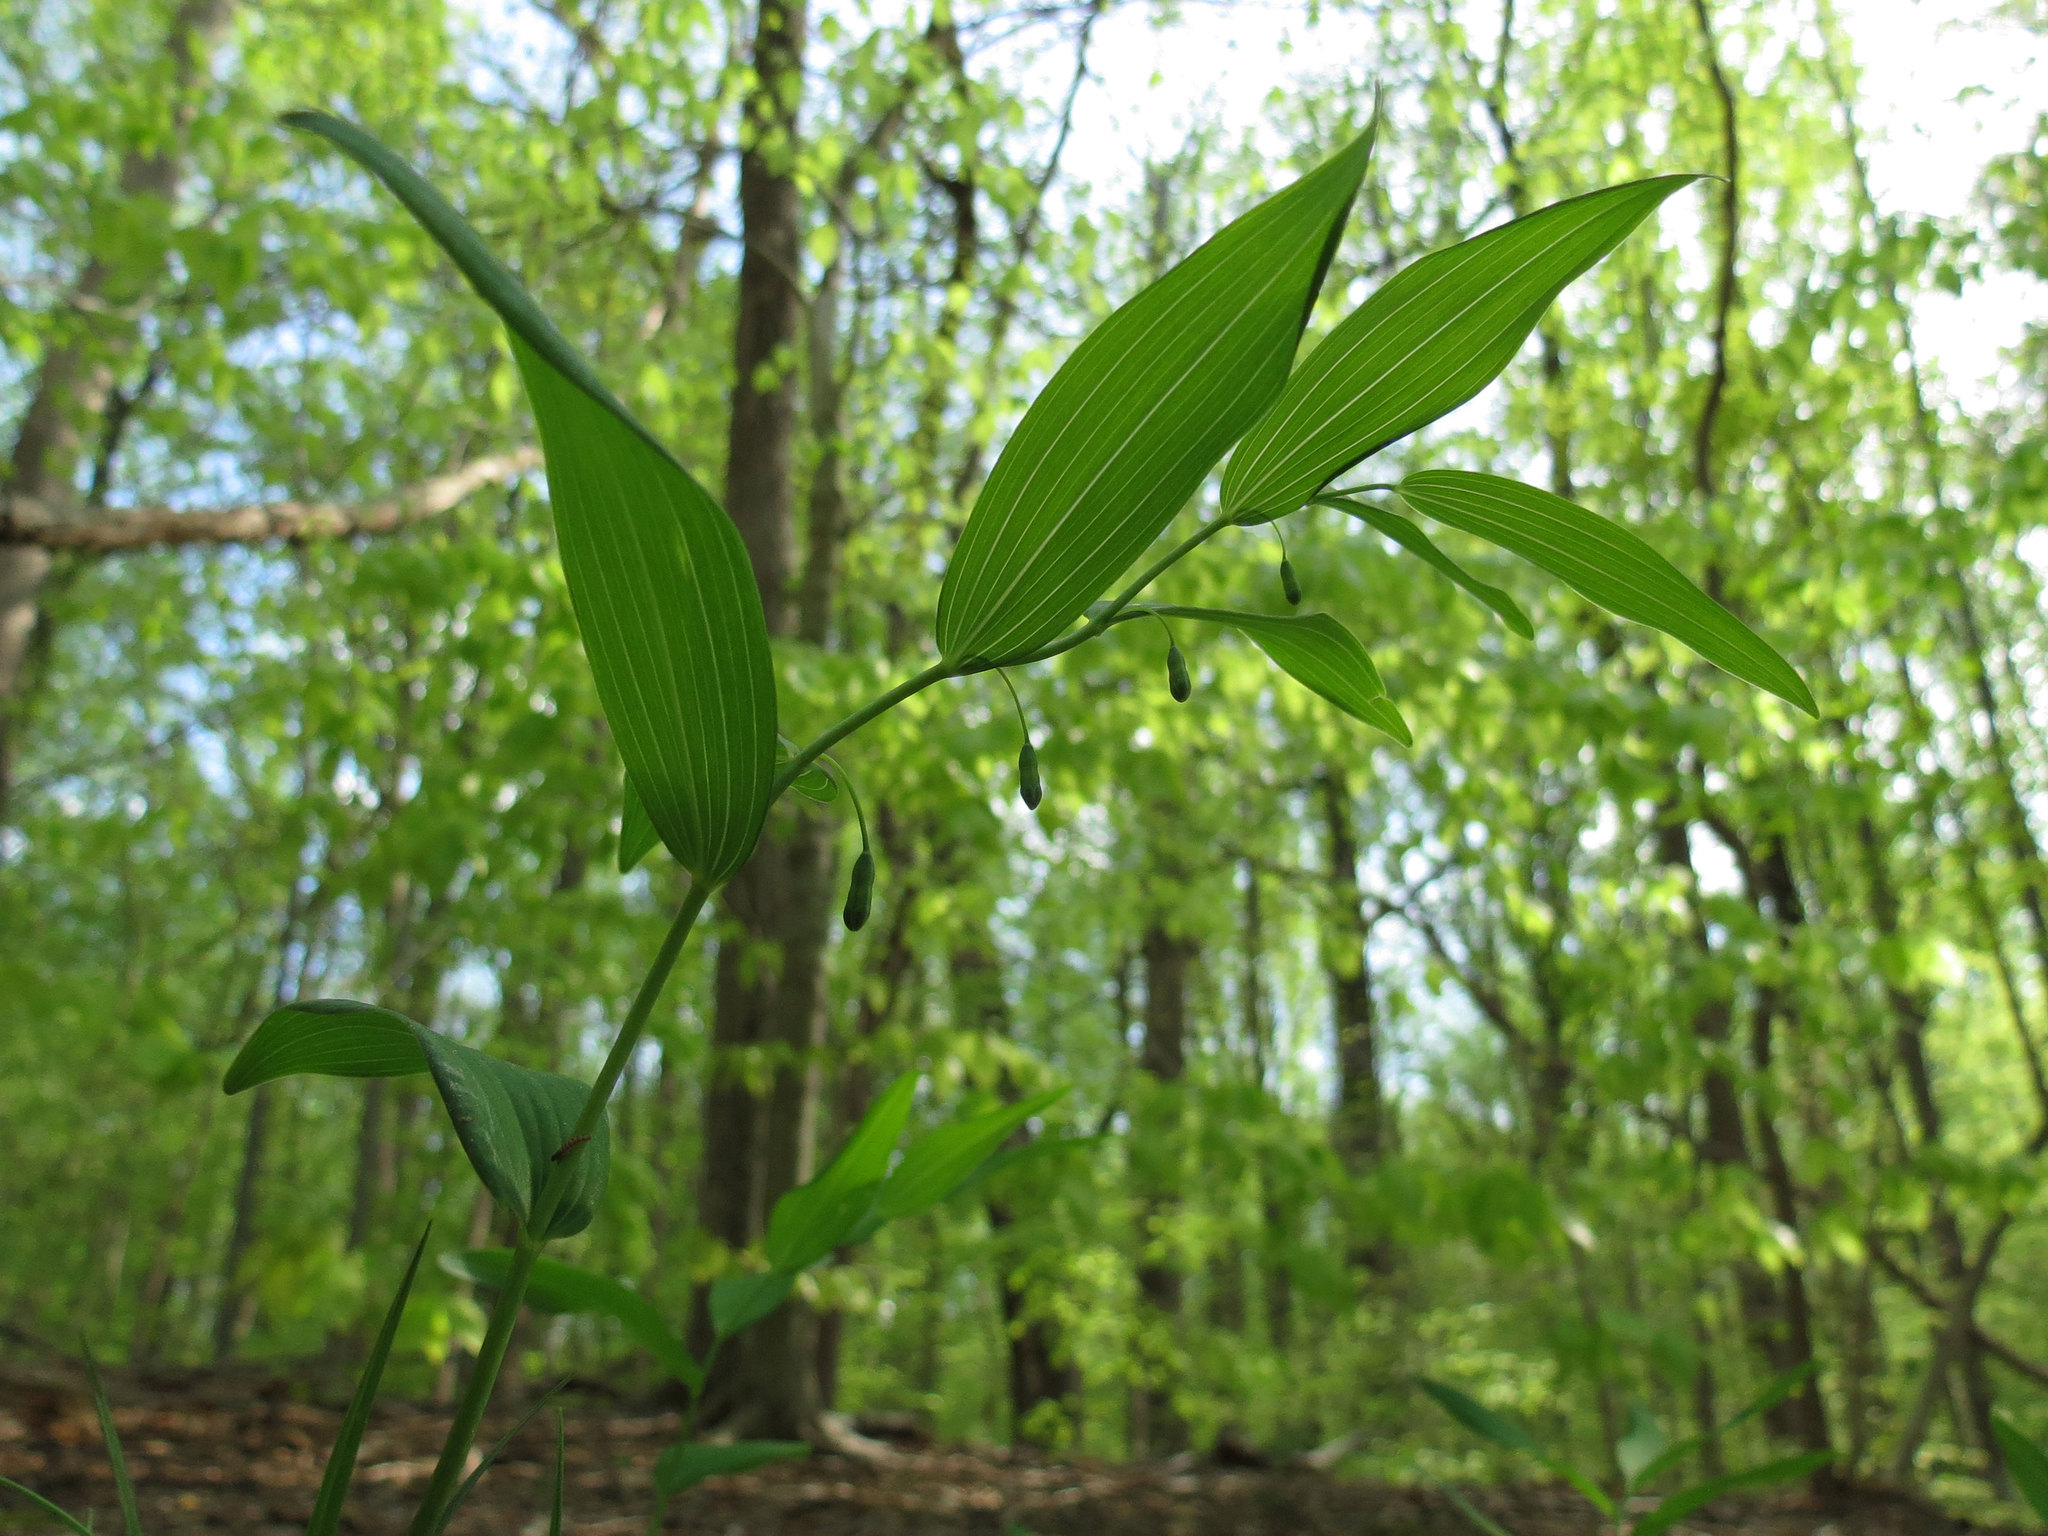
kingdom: Plantae
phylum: Tracheophyta
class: Liliopsida
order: Asparagales
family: Asparagaceae
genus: Polygonatum
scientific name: Polygonatum biflorum
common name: American solomon's-seal
